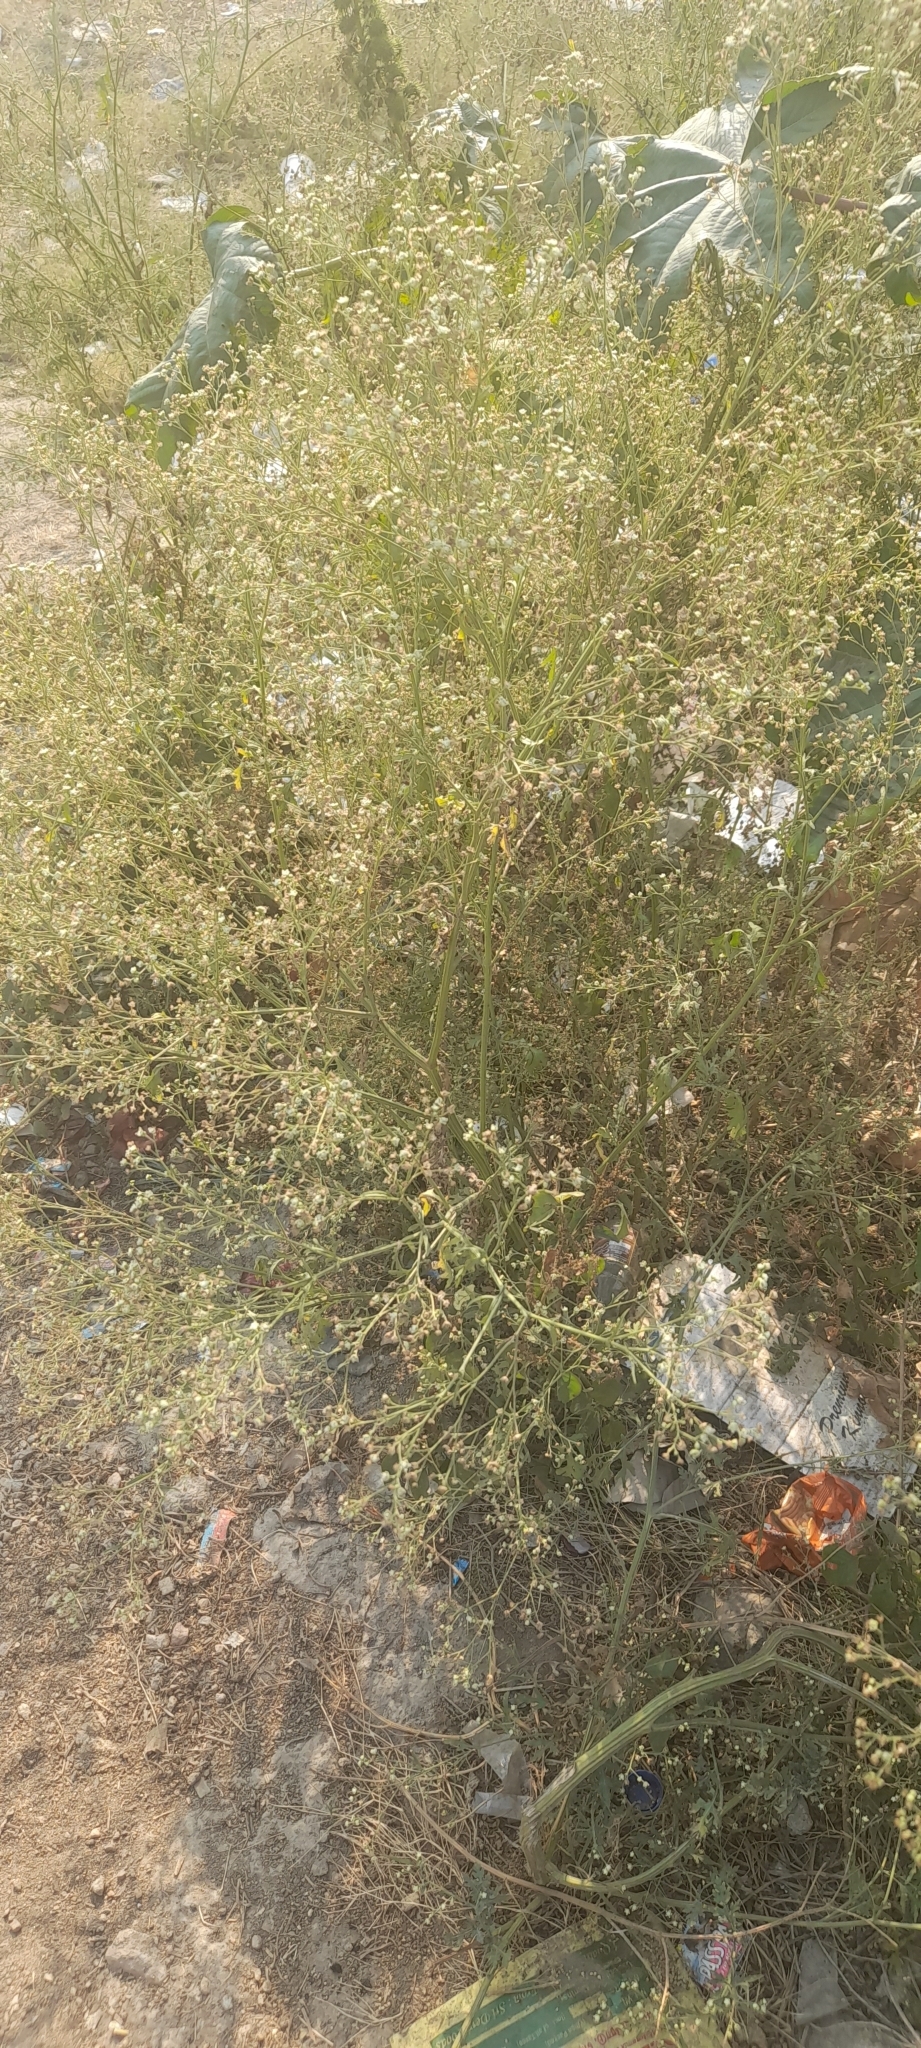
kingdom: Plantae
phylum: Tracheophyta
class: Magnoliopsida
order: Asterales
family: Asteraceae
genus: Parthenium
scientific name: Parthenium hysterophorus
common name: Santa maria feverfew
